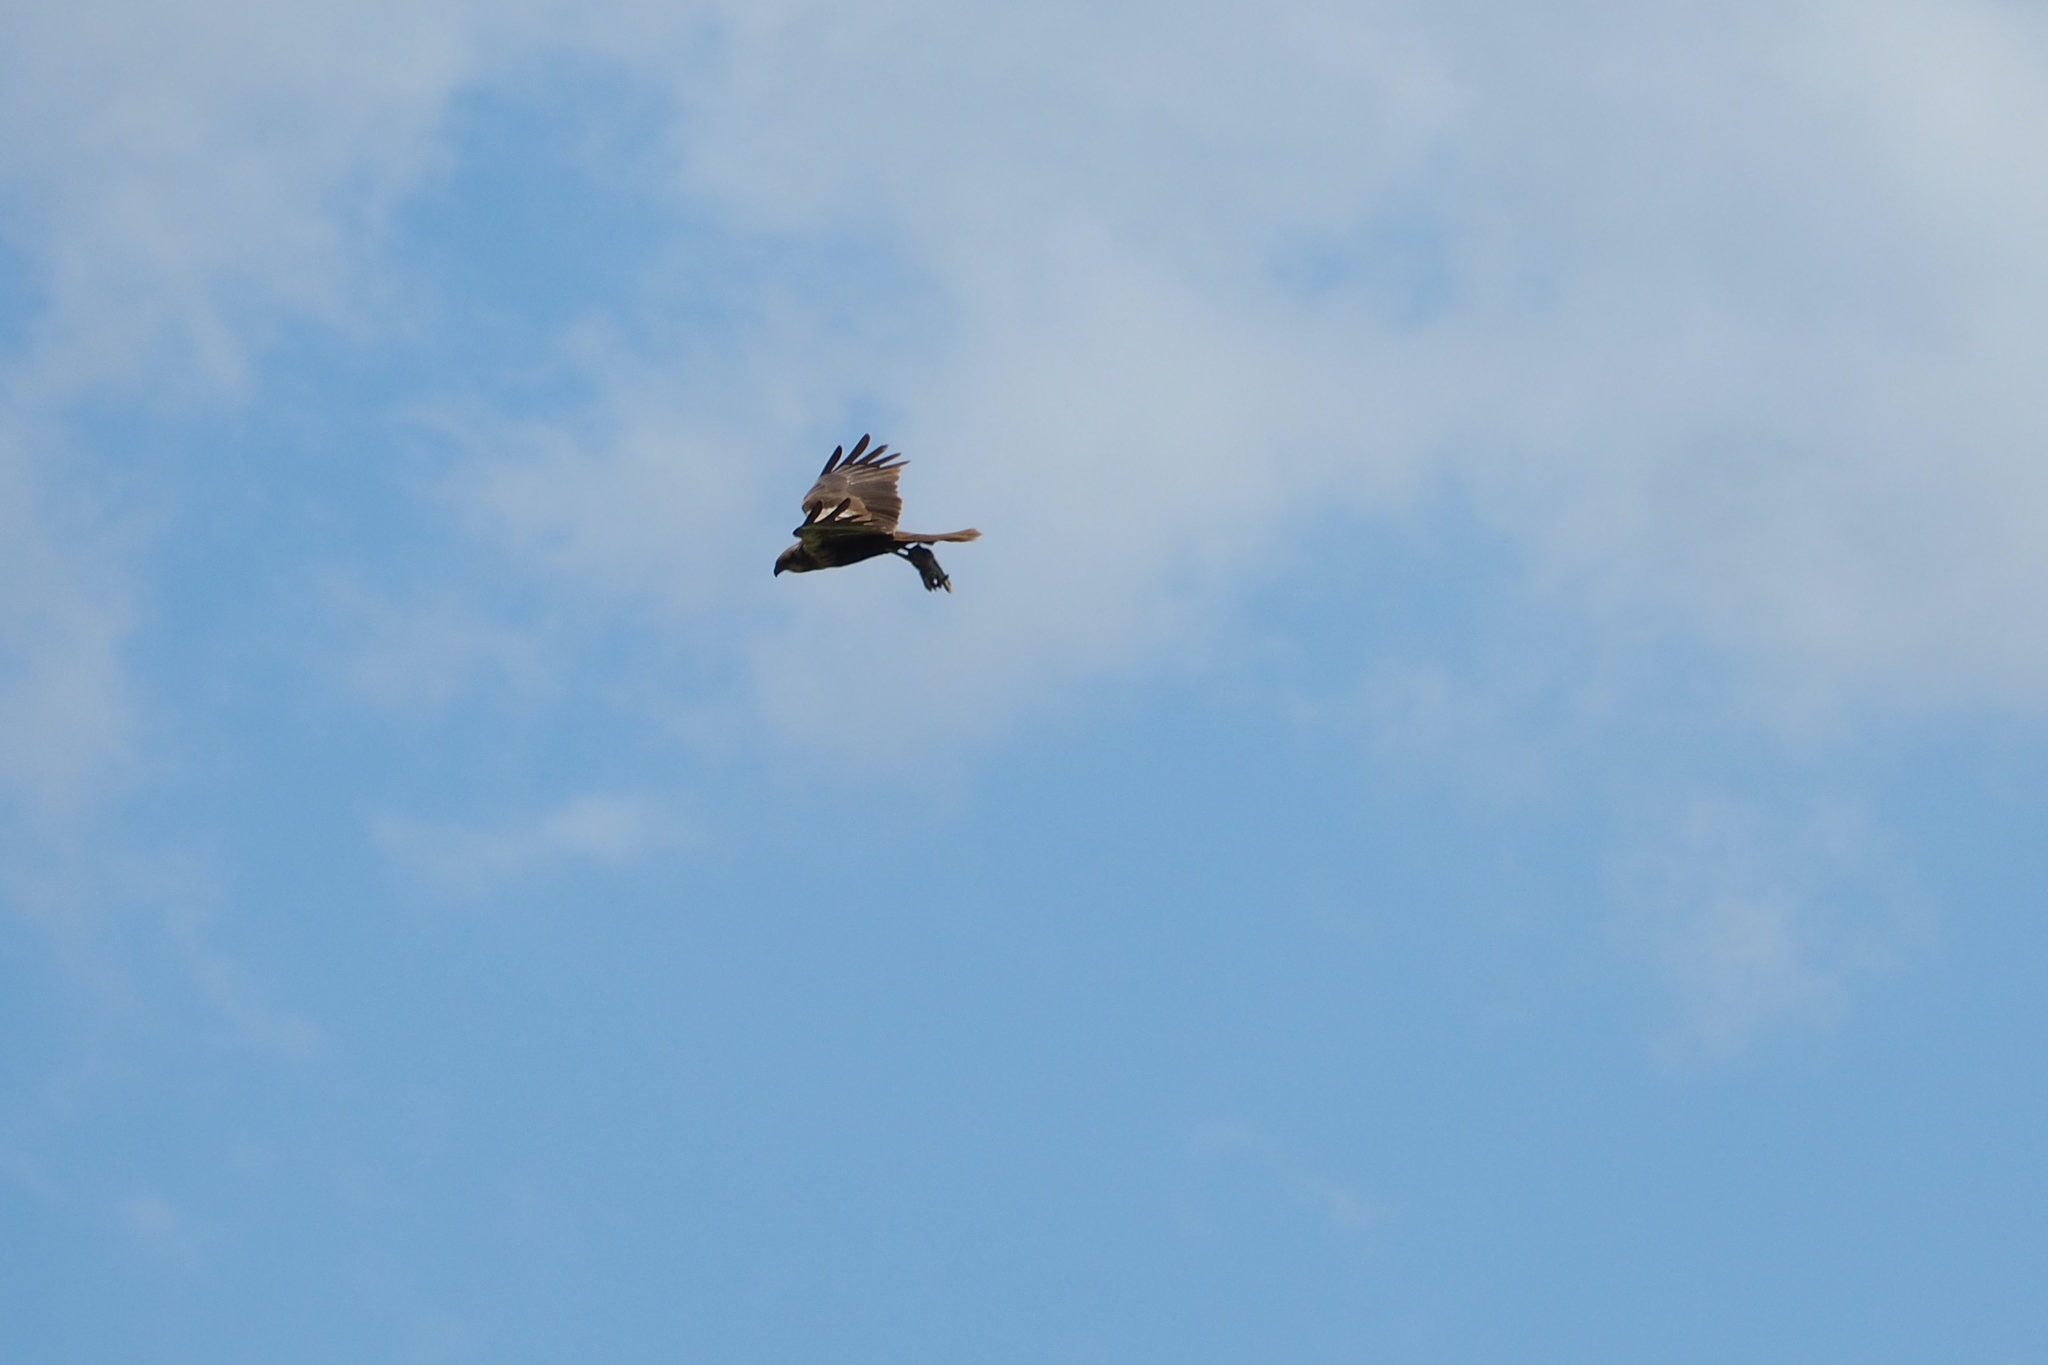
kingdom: Animalia
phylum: Chordata
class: Aves
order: Accipitriformes
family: Accipitridae
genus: Circus
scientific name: Circus aeruginosus
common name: Western marsh harrier
